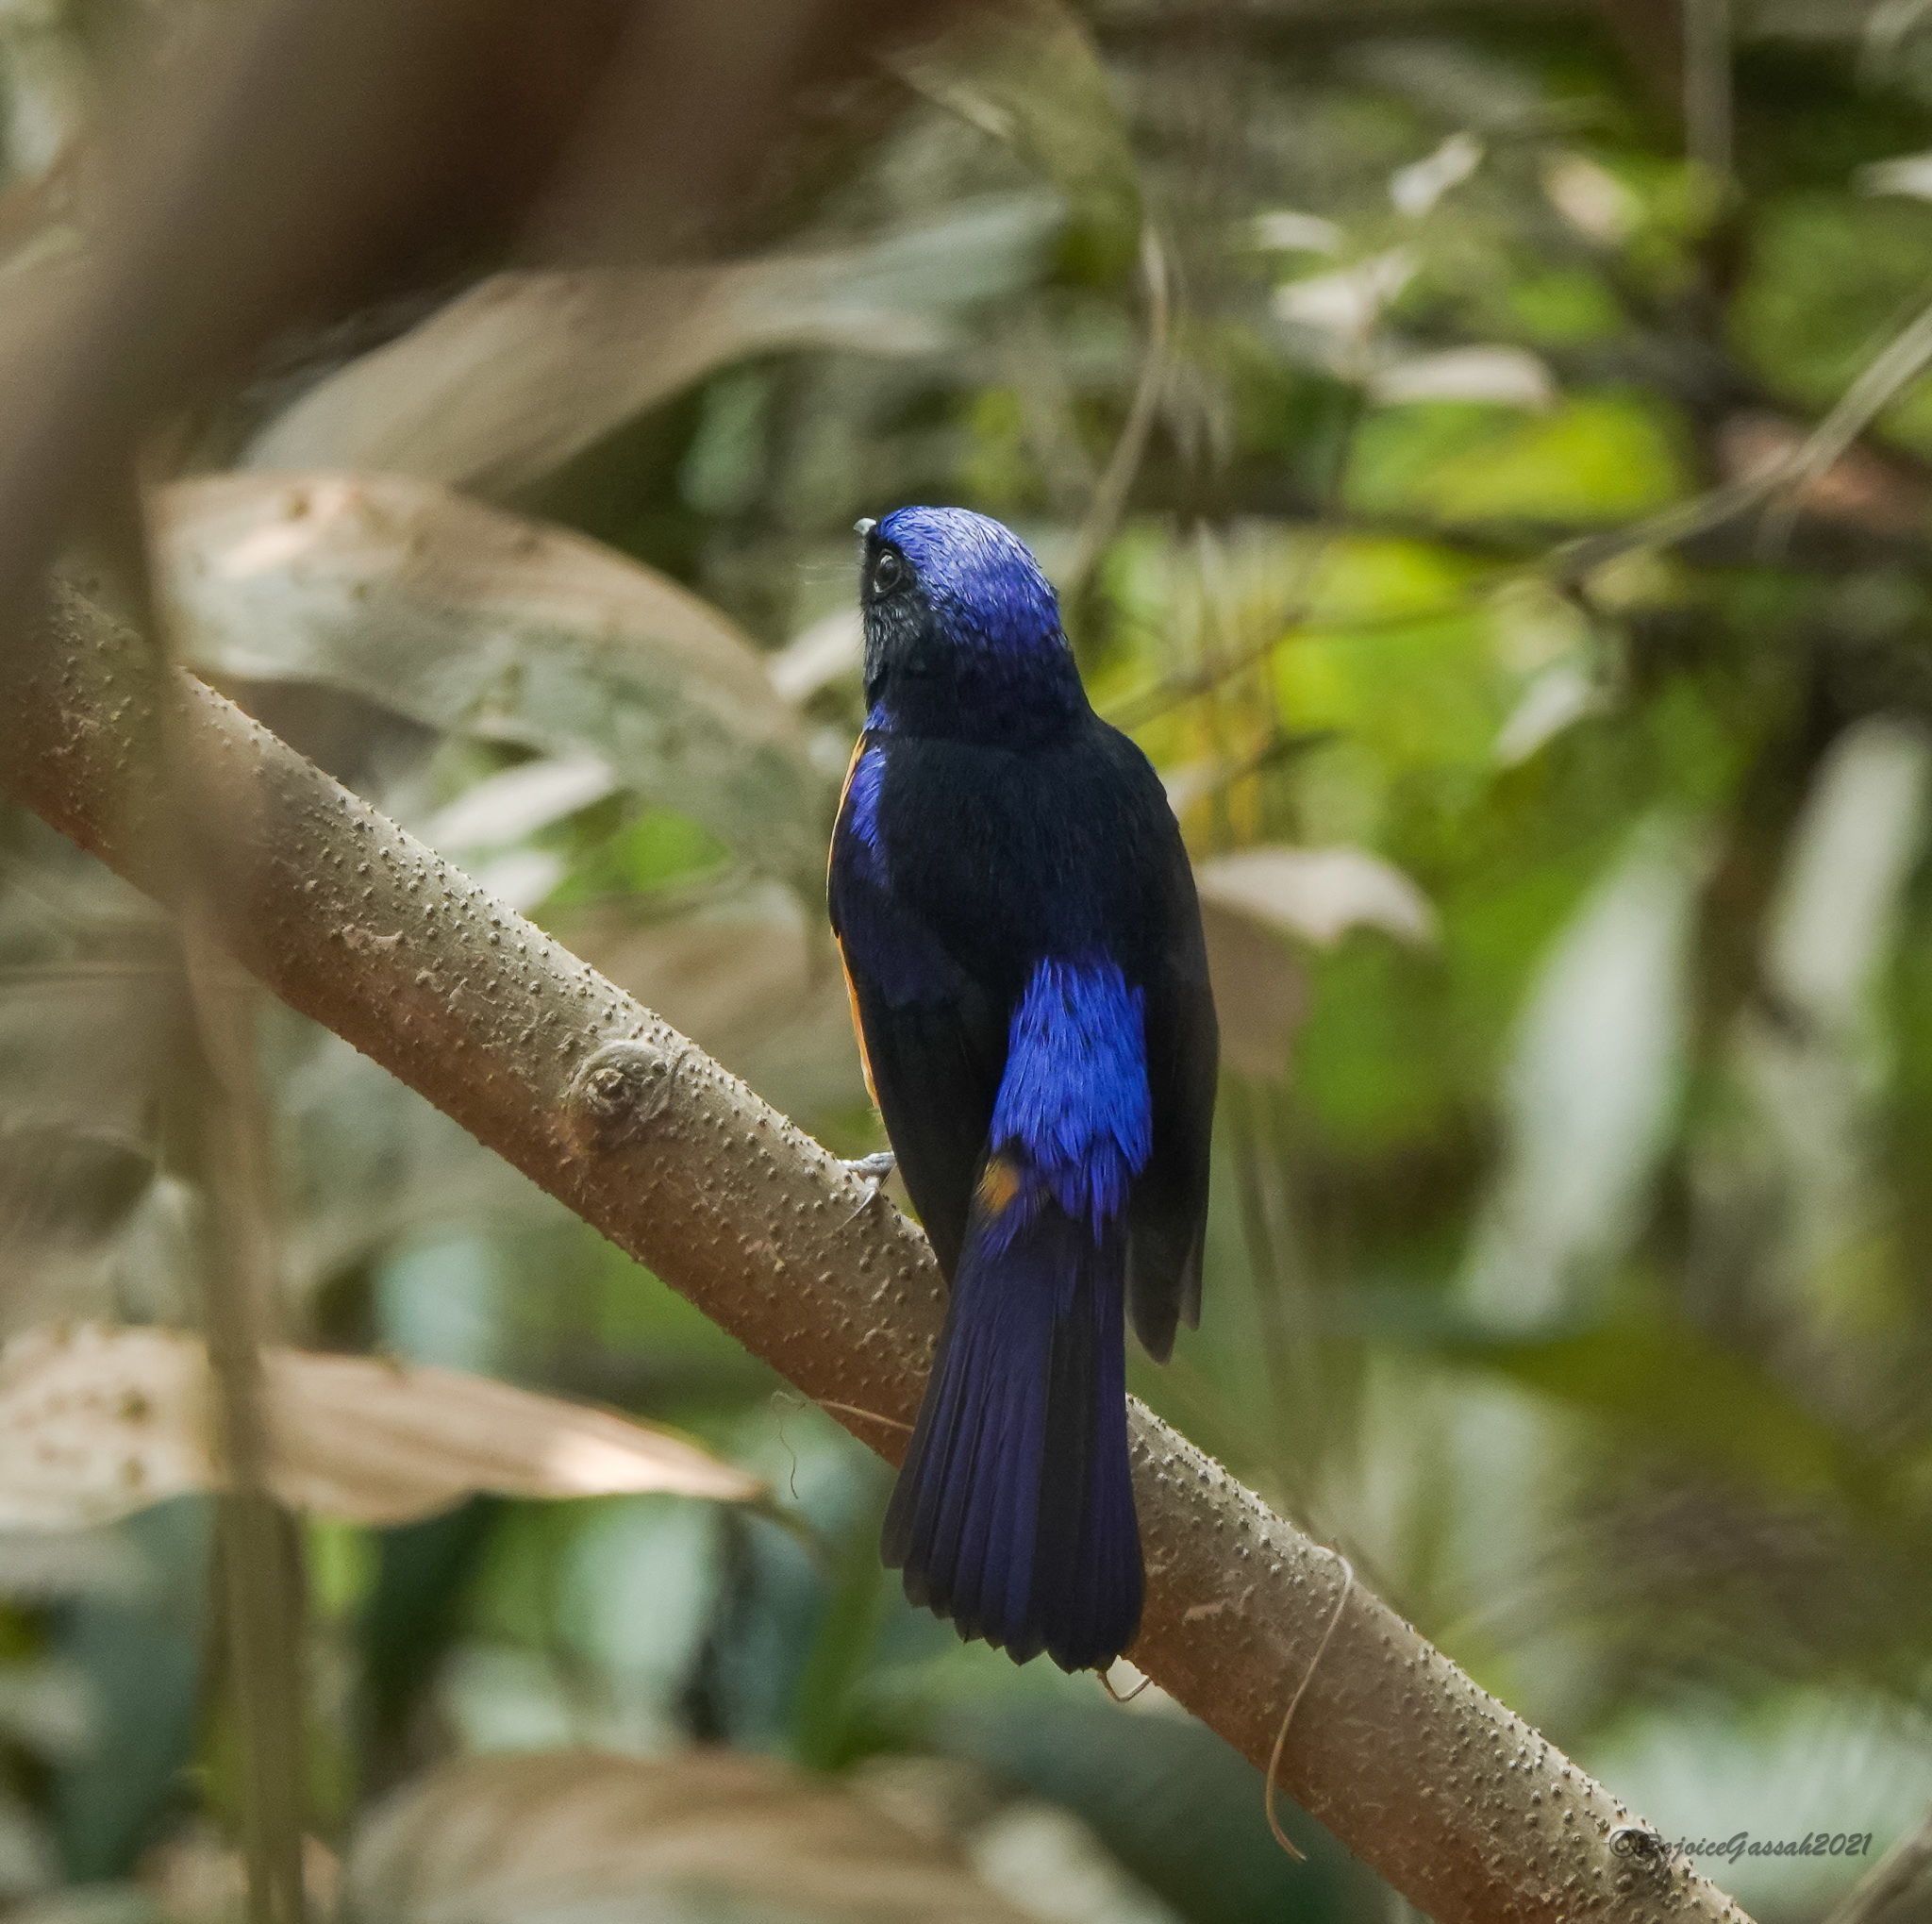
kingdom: Animalia
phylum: Chordata
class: Aves
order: Passeriformes
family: Muscicapidae
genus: Niltava
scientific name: Niltava sundara
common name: Rufous-bellied niltava
